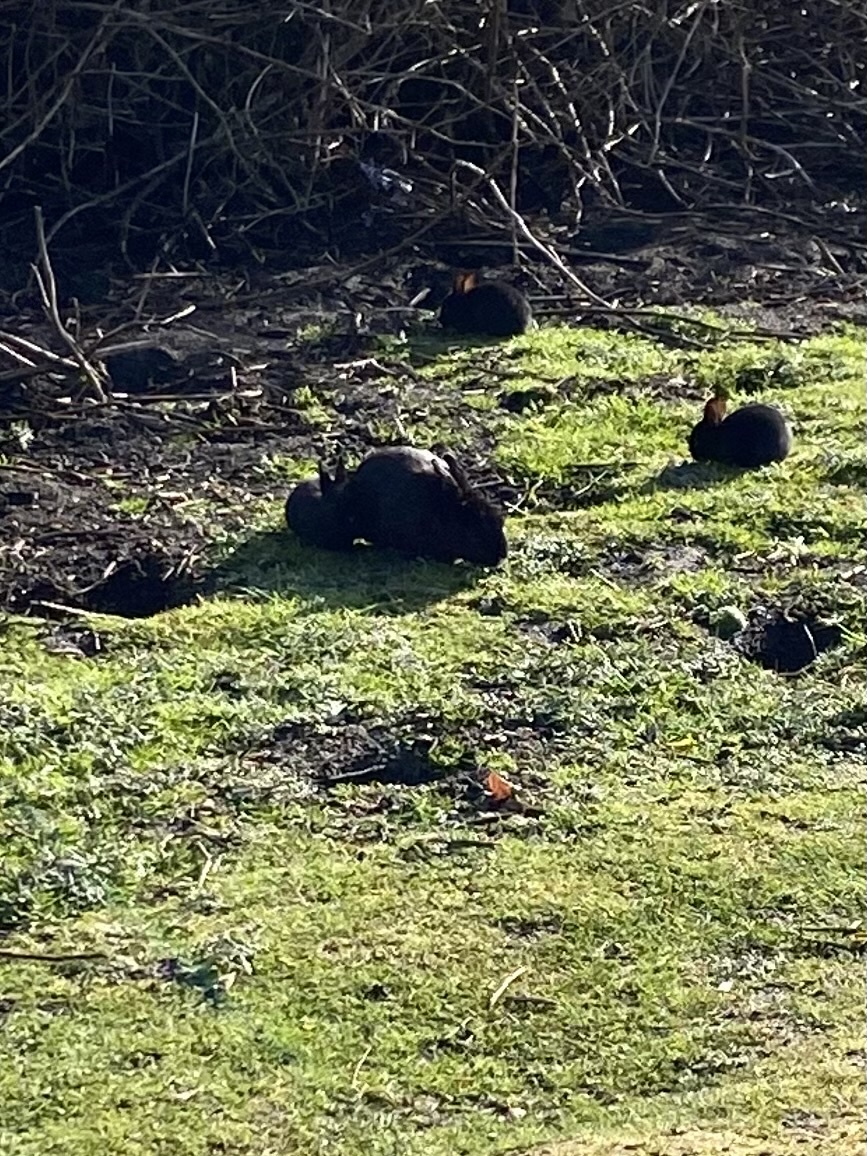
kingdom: Animalia
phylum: Chordata
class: Mammalia
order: Lagomorpha
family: Leporidae
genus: Oryctolagus
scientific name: Oryctolagus cuniculus
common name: European rabbit
